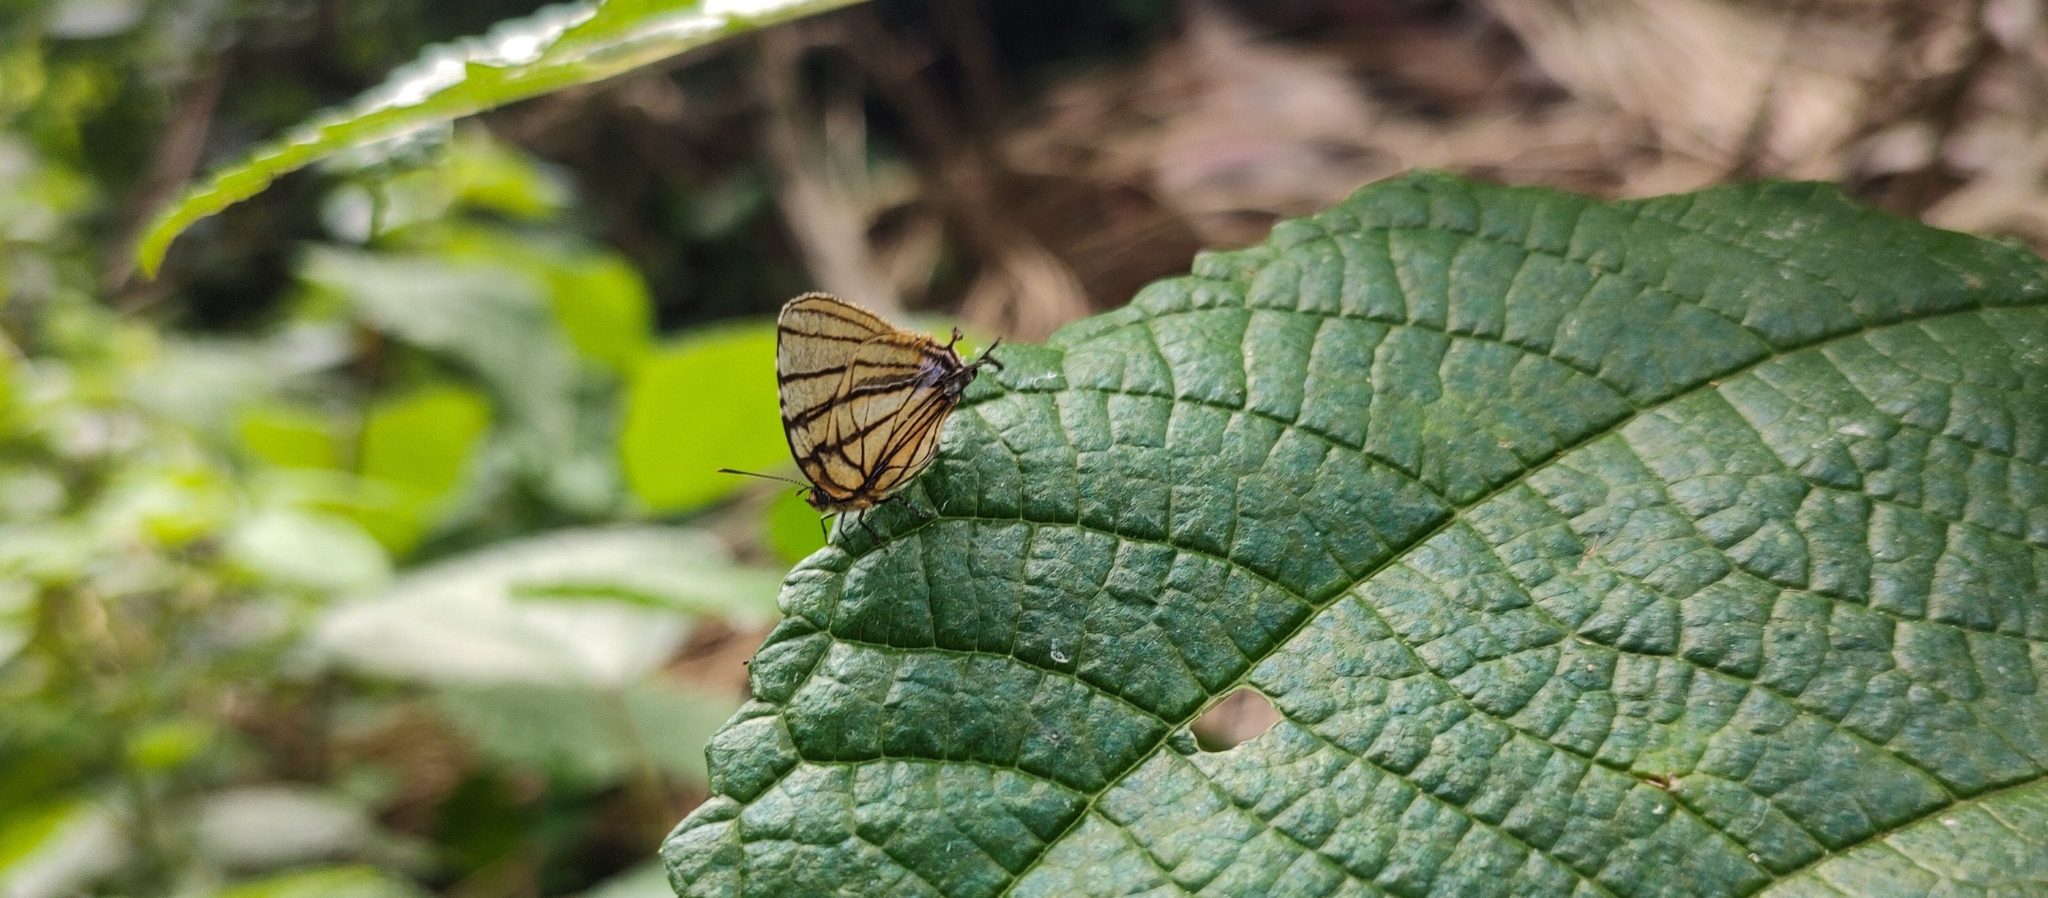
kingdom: Animalia
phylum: Arthropoda
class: Insecta
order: Lepidoptera
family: Lycaenidae
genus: Arawacus
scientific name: Arawacus melibaeus
